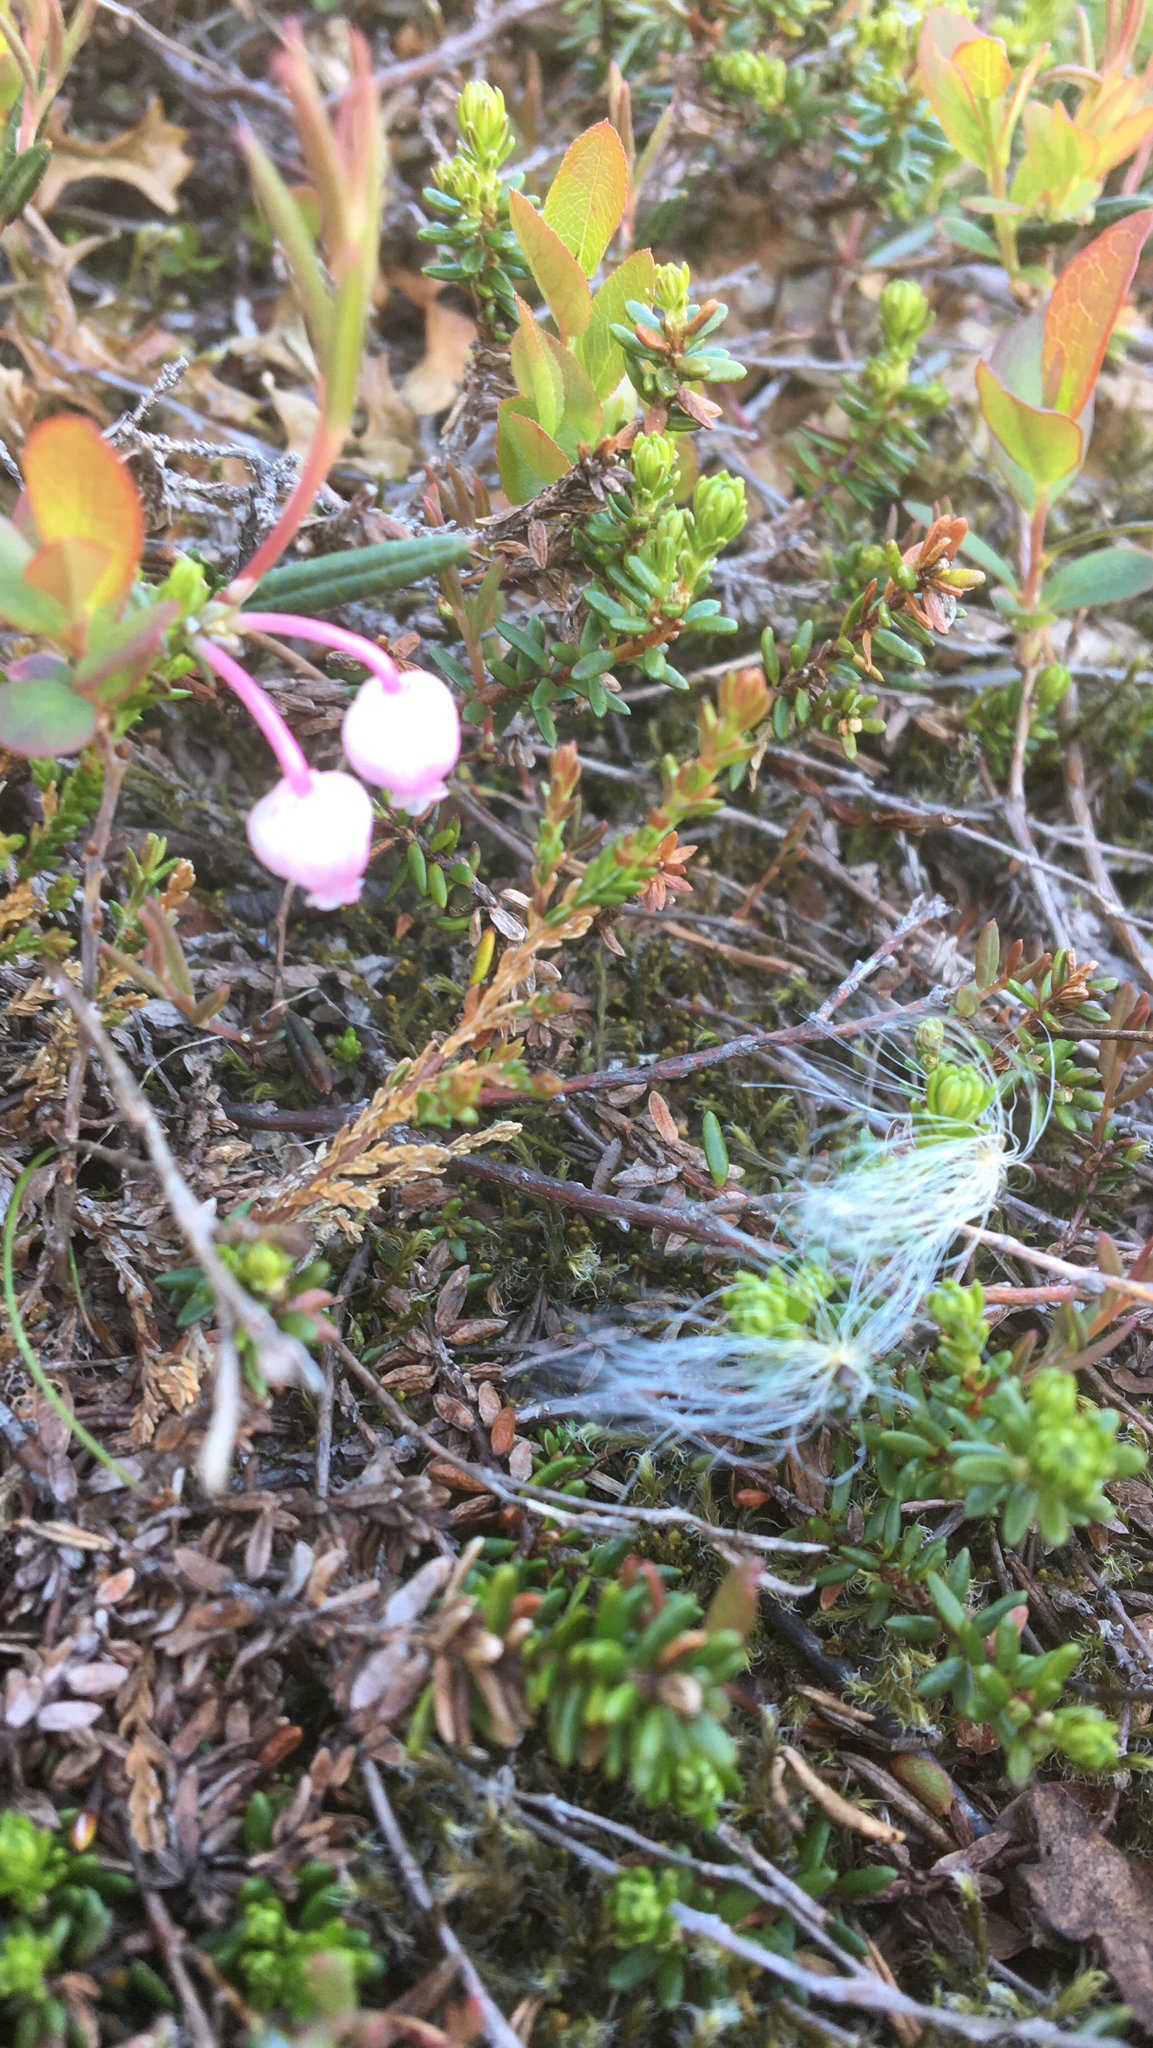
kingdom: Plantae
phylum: Tracheophyta
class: Magnoliopsida
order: Ericales
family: Ericaceae
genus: Andromeda
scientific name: Andromeda polifolia
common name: Bog-rosemary
